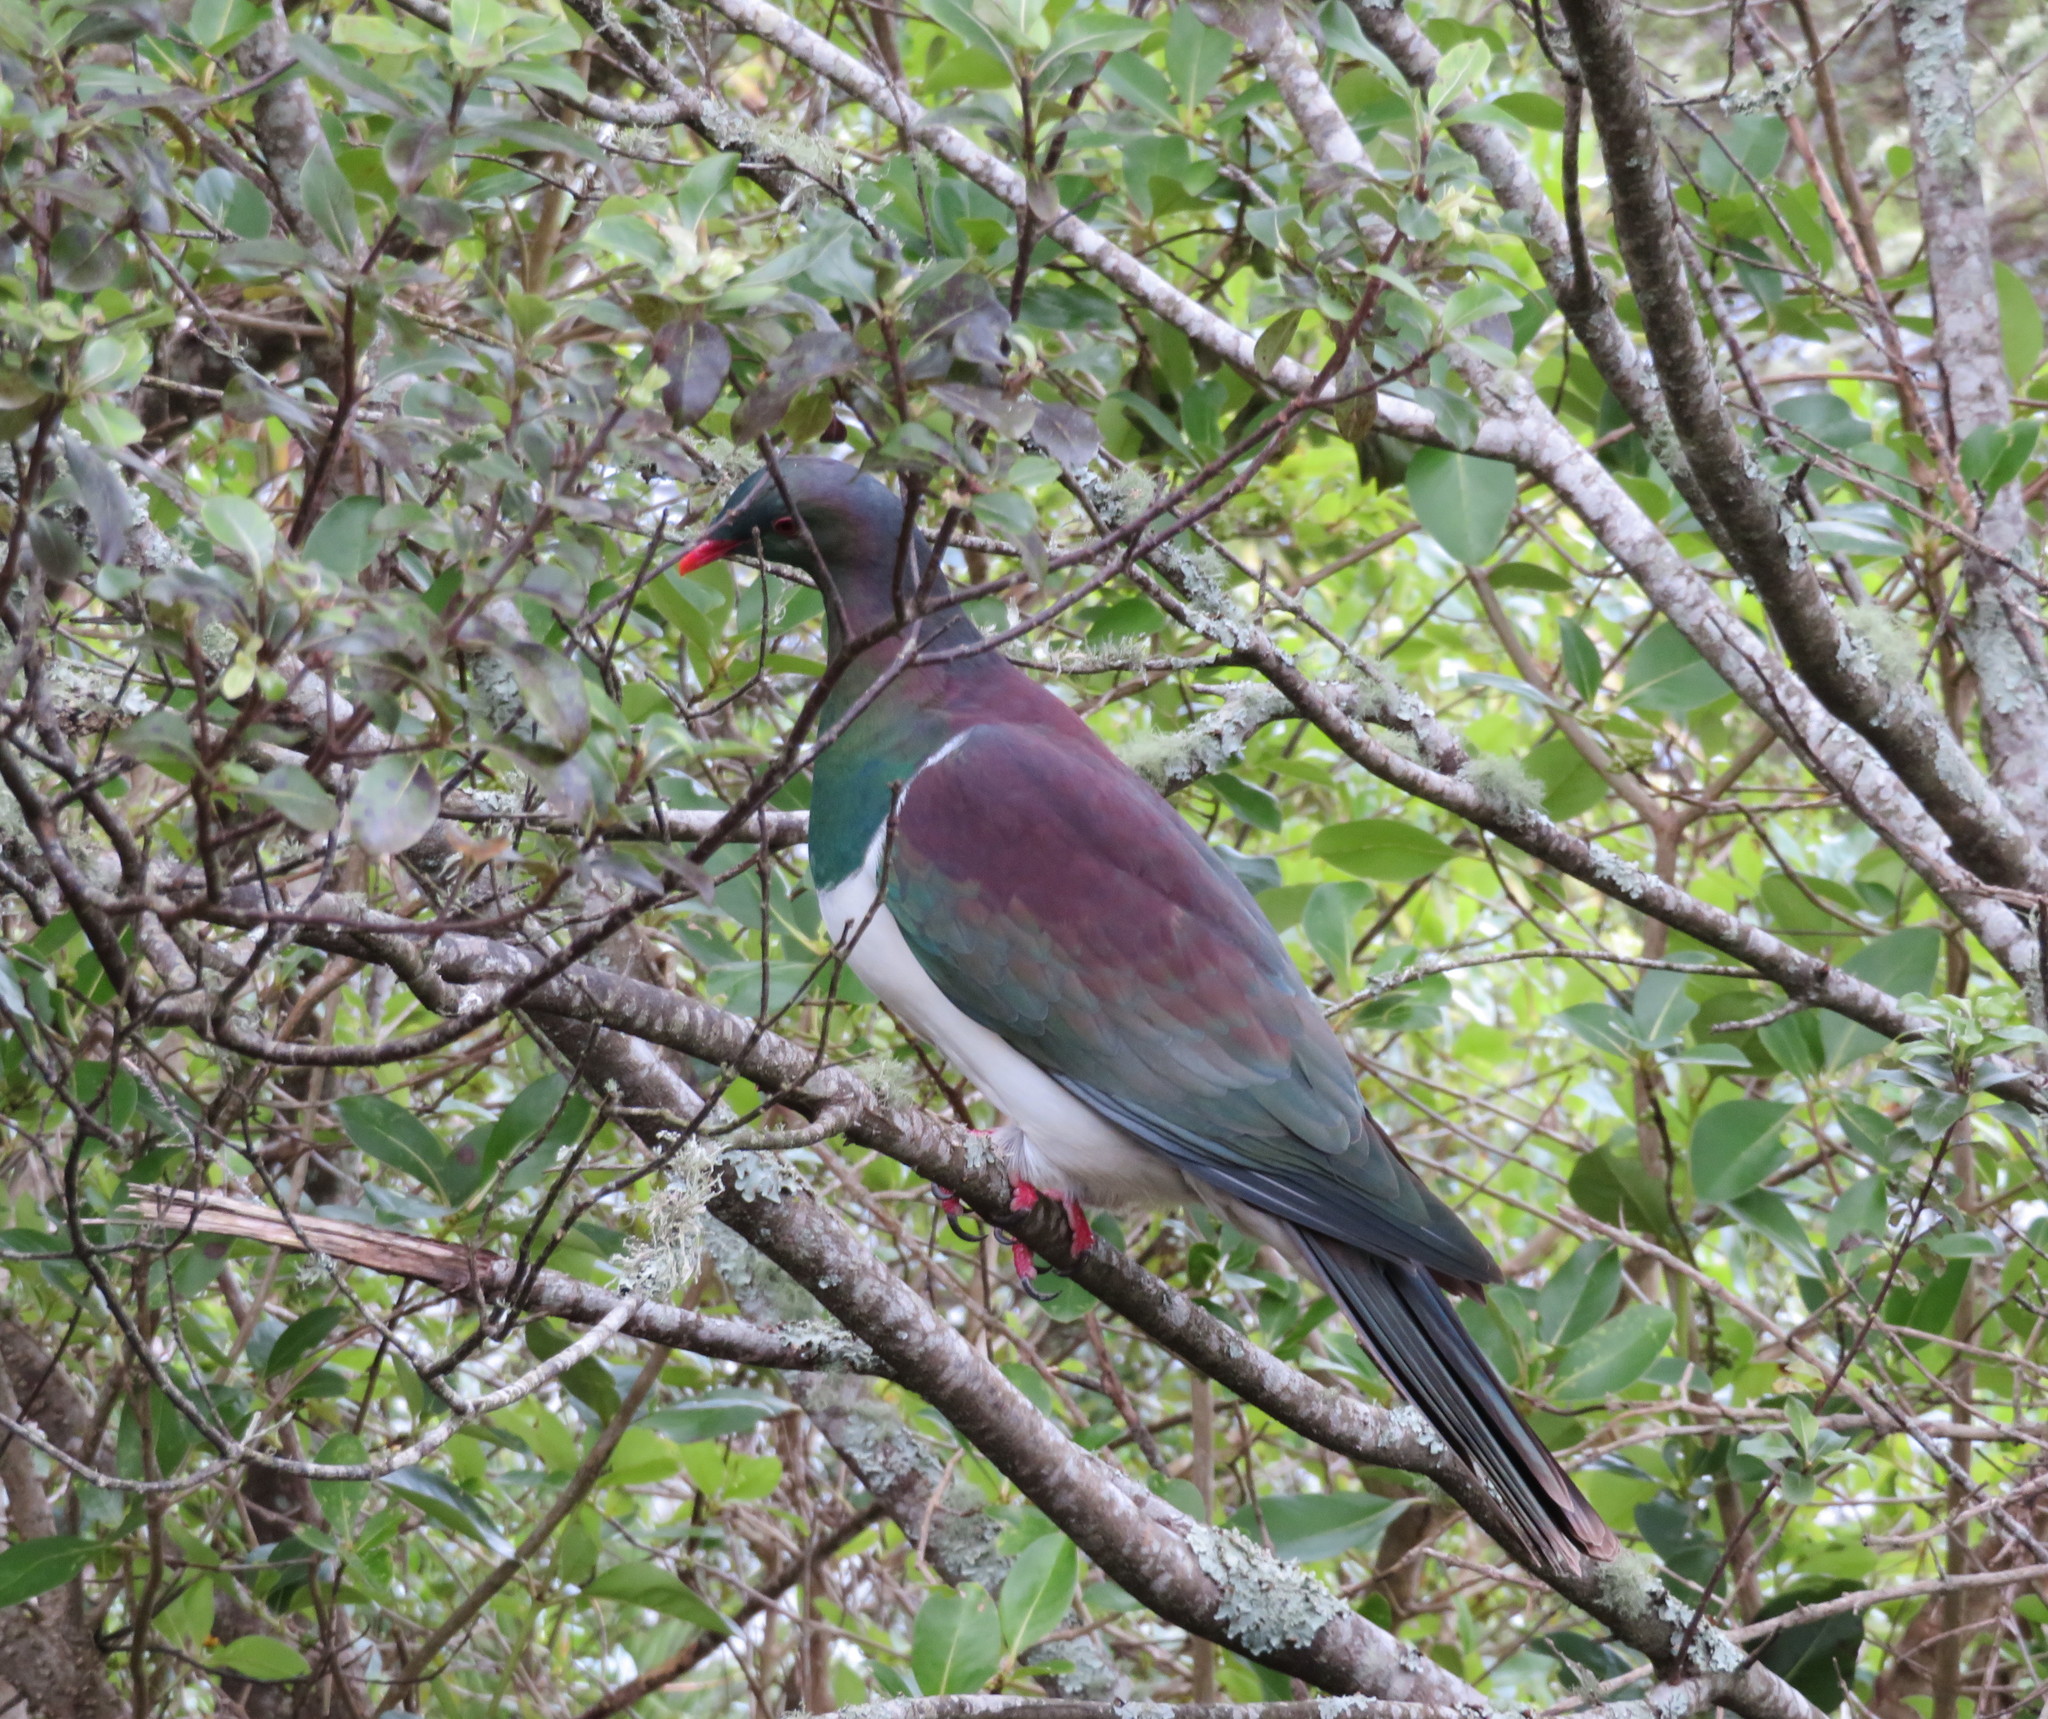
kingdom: Animalia
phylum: Chordata
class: Aves
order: Columbiformes
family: Columbidae
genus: Hemiphaga
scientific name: Hemiphaga novaeseelandiae
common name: New zealand pigeon
